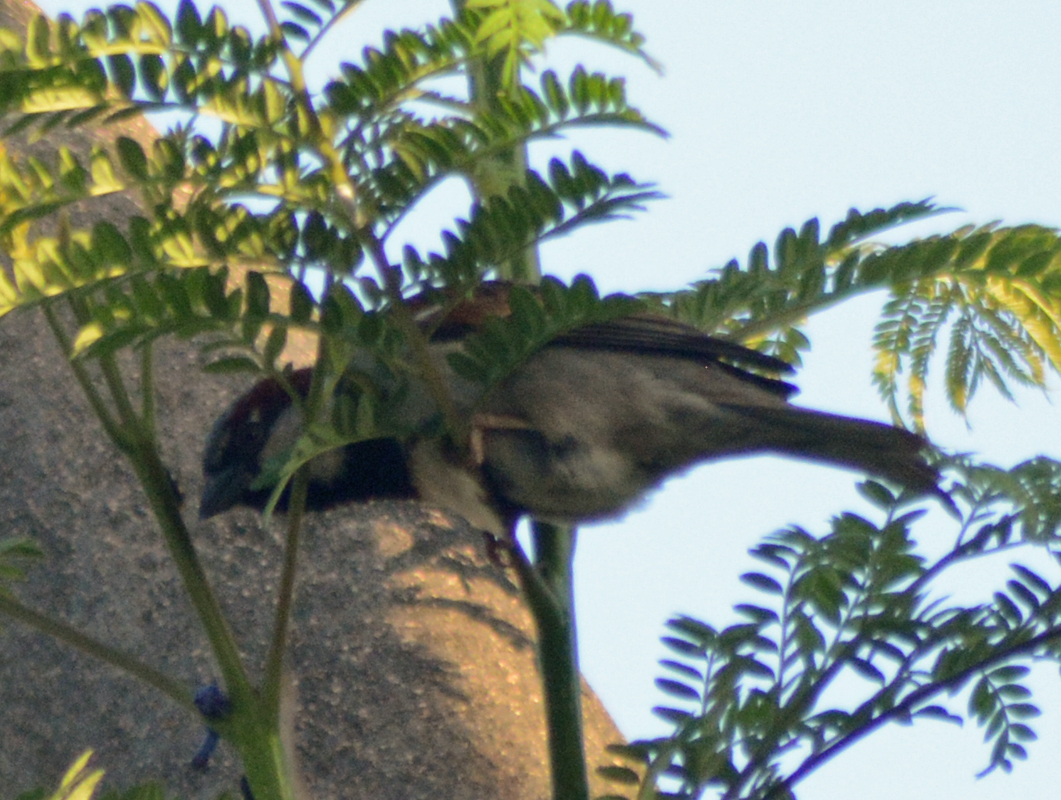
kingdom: Animalia
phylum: Chordata
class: Aves
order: Passeriformes
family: Passeridae
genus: Passer
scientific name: Passer domesticus
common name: House sparrow
